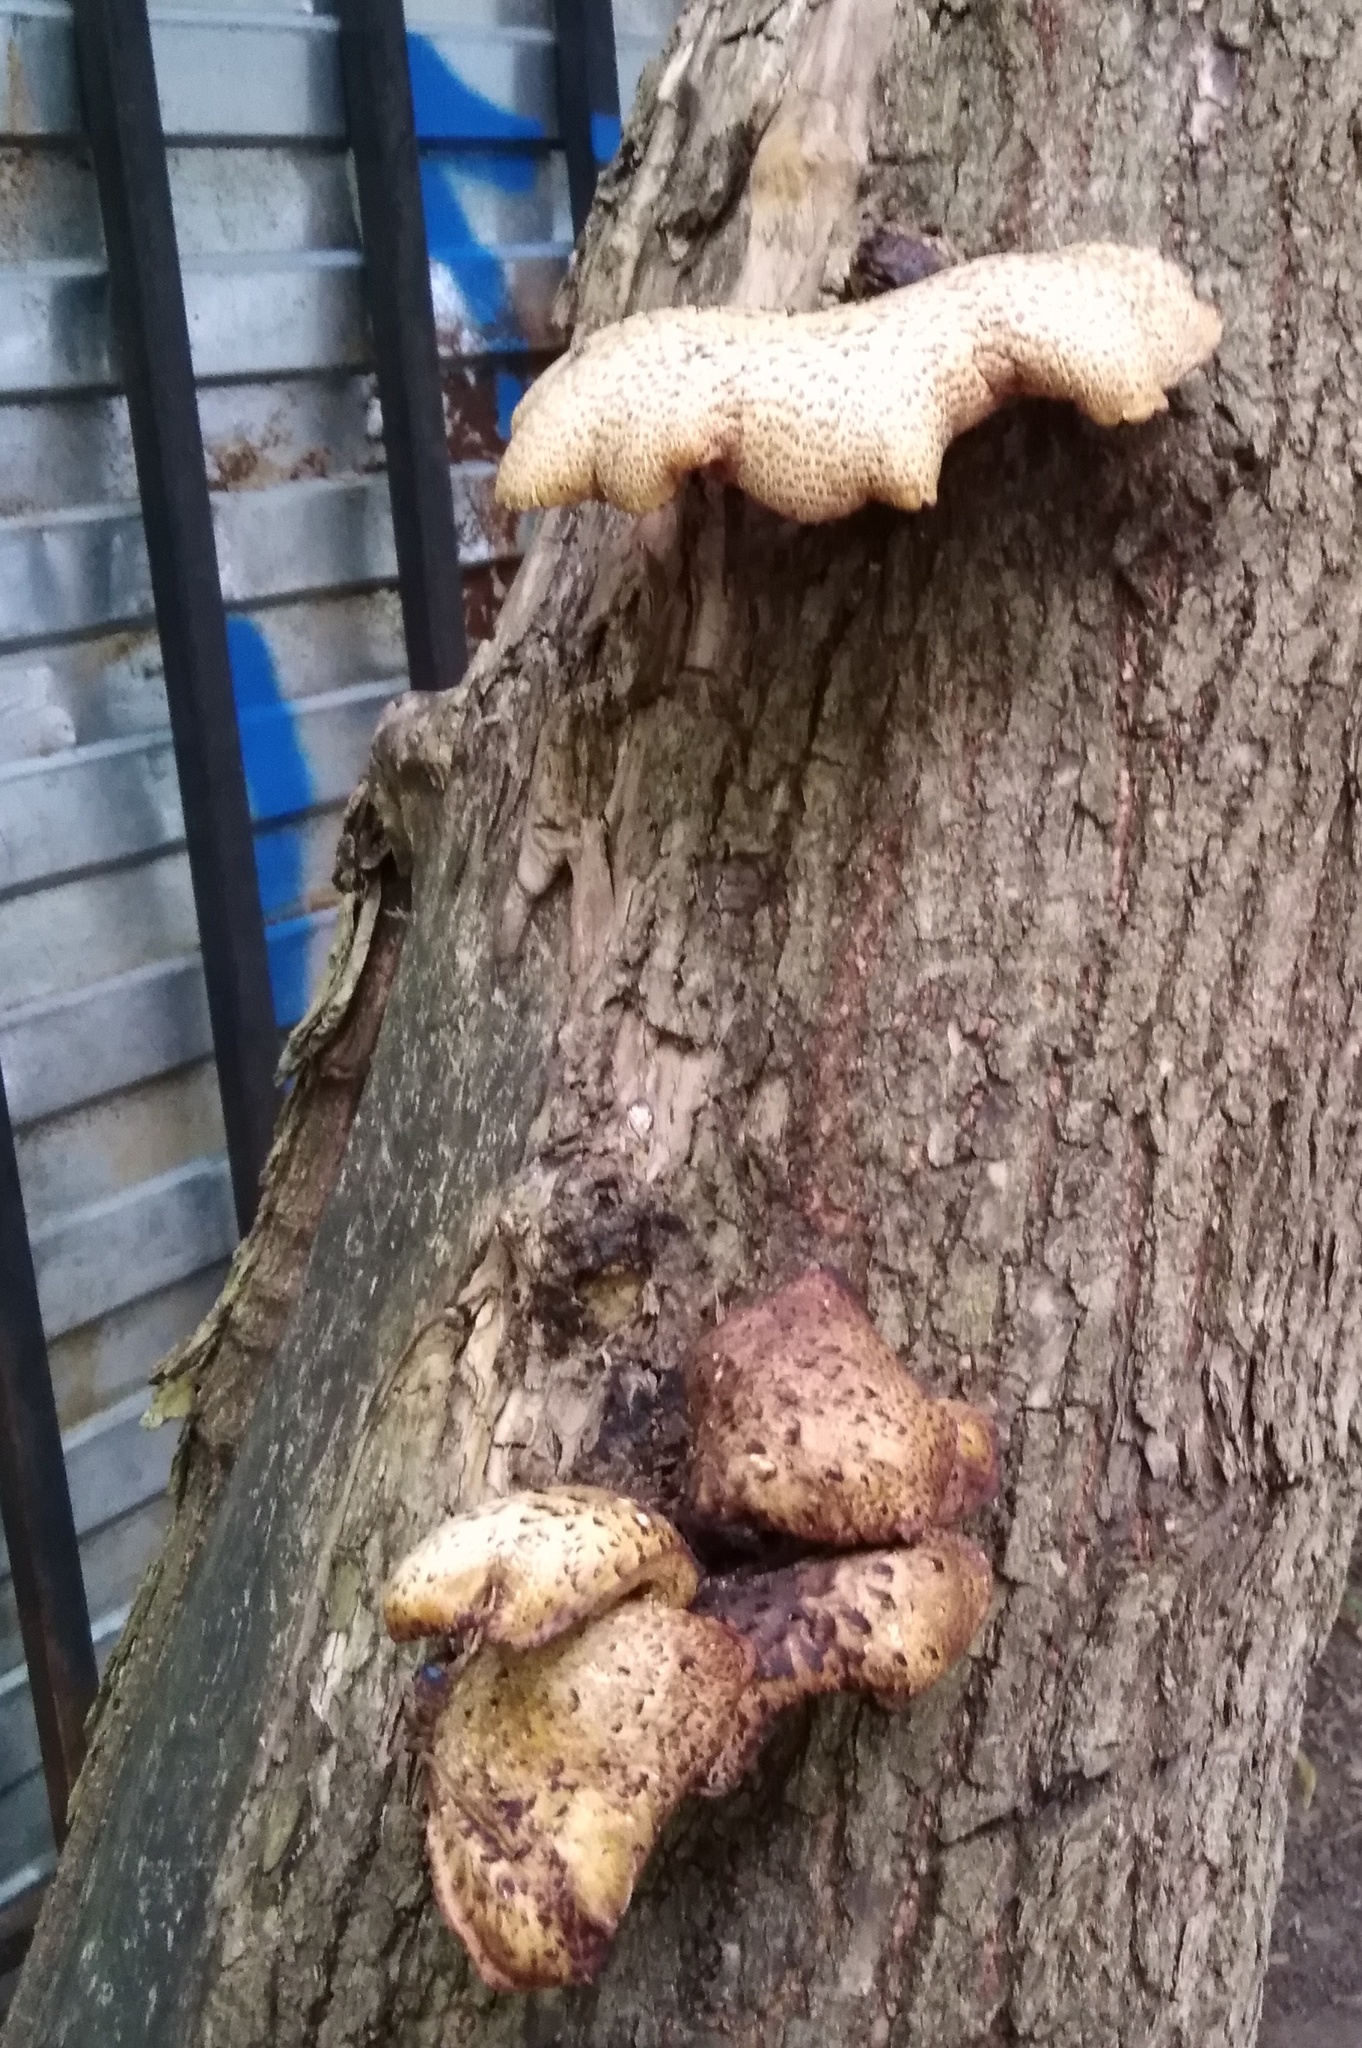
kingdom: Fungi
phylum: Basidiomycota
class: Agaricomycetes
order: Polyporales
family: Polyporaceae
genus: Cerioporus
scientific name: Cerioporus squamosus
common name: Dryad's saddle
